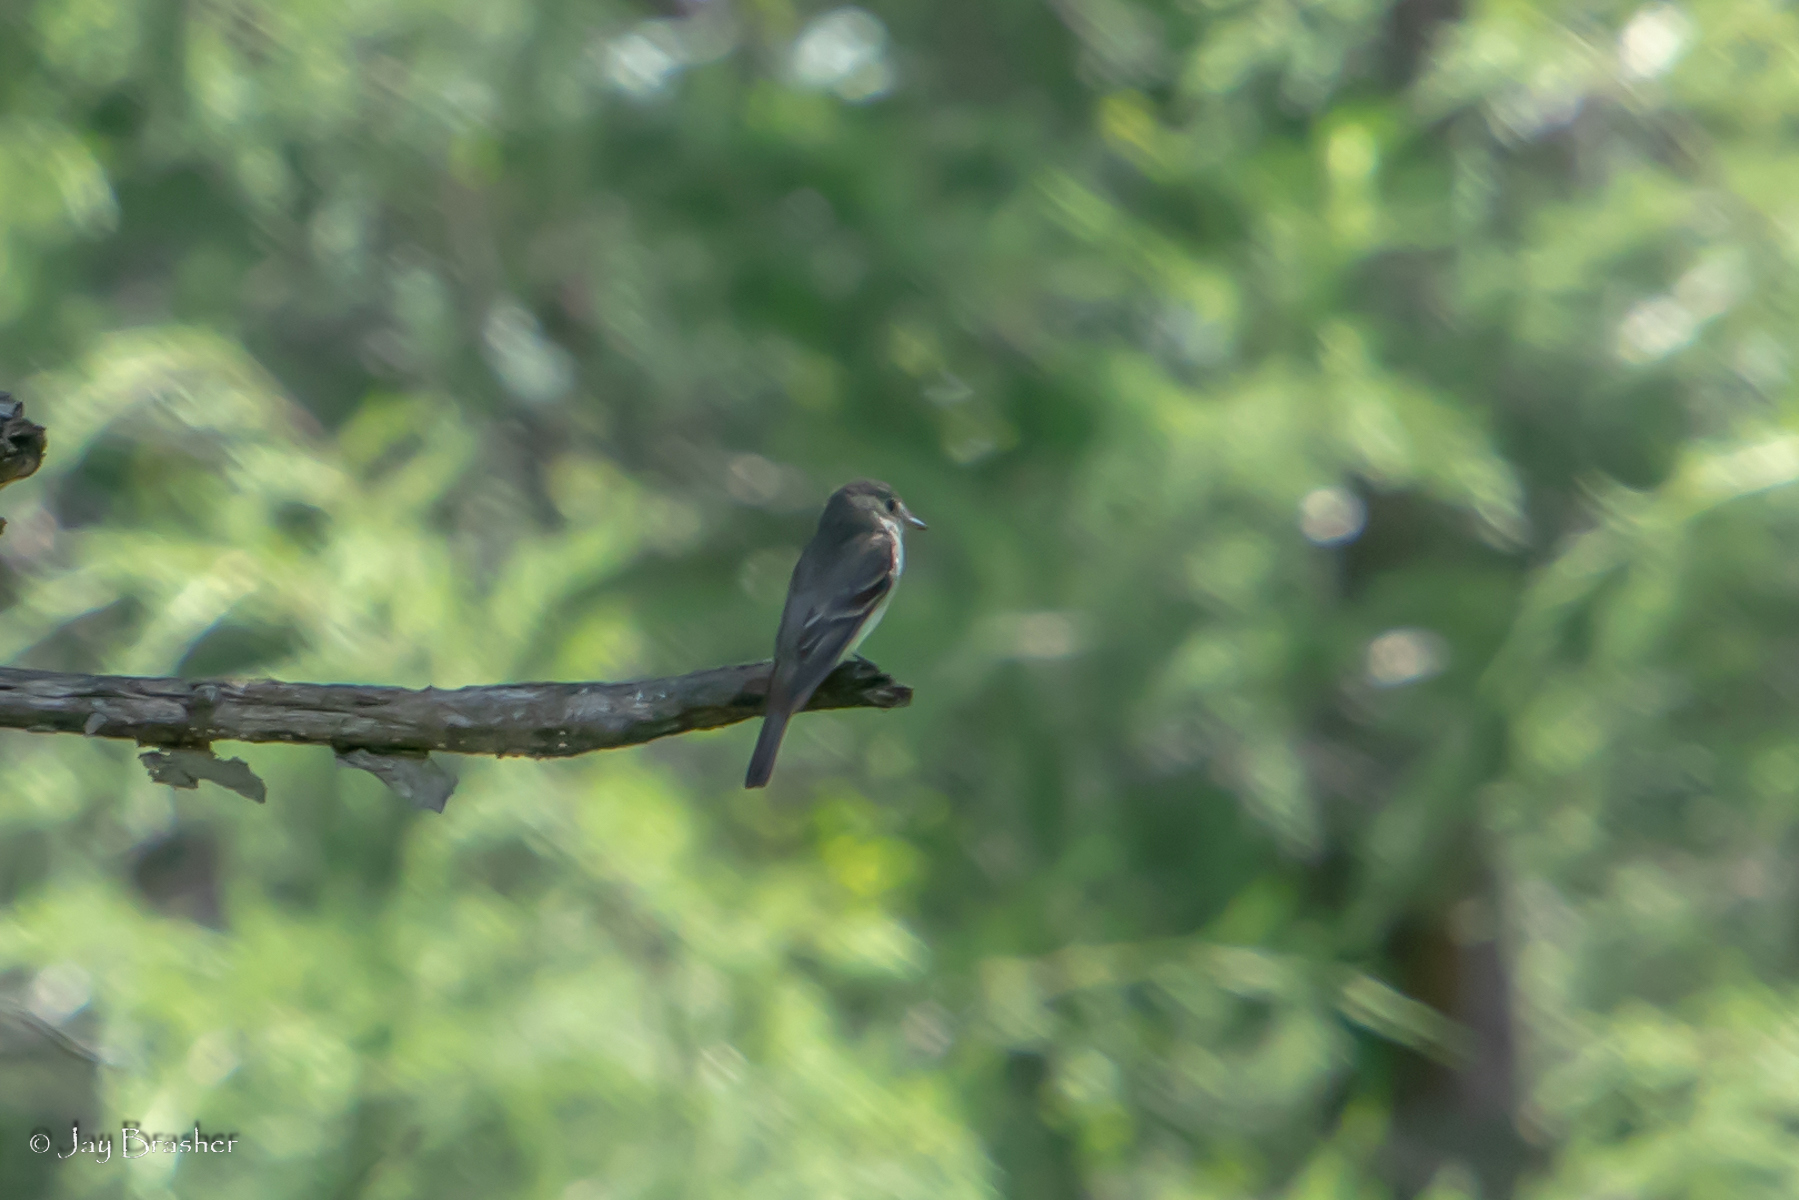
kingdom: Animalia
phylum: Chordata
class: Aves
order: Passeriformes
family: Tyrannidae
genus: Contopus
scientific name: Contopus virens
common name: Eastern wood-pewee
